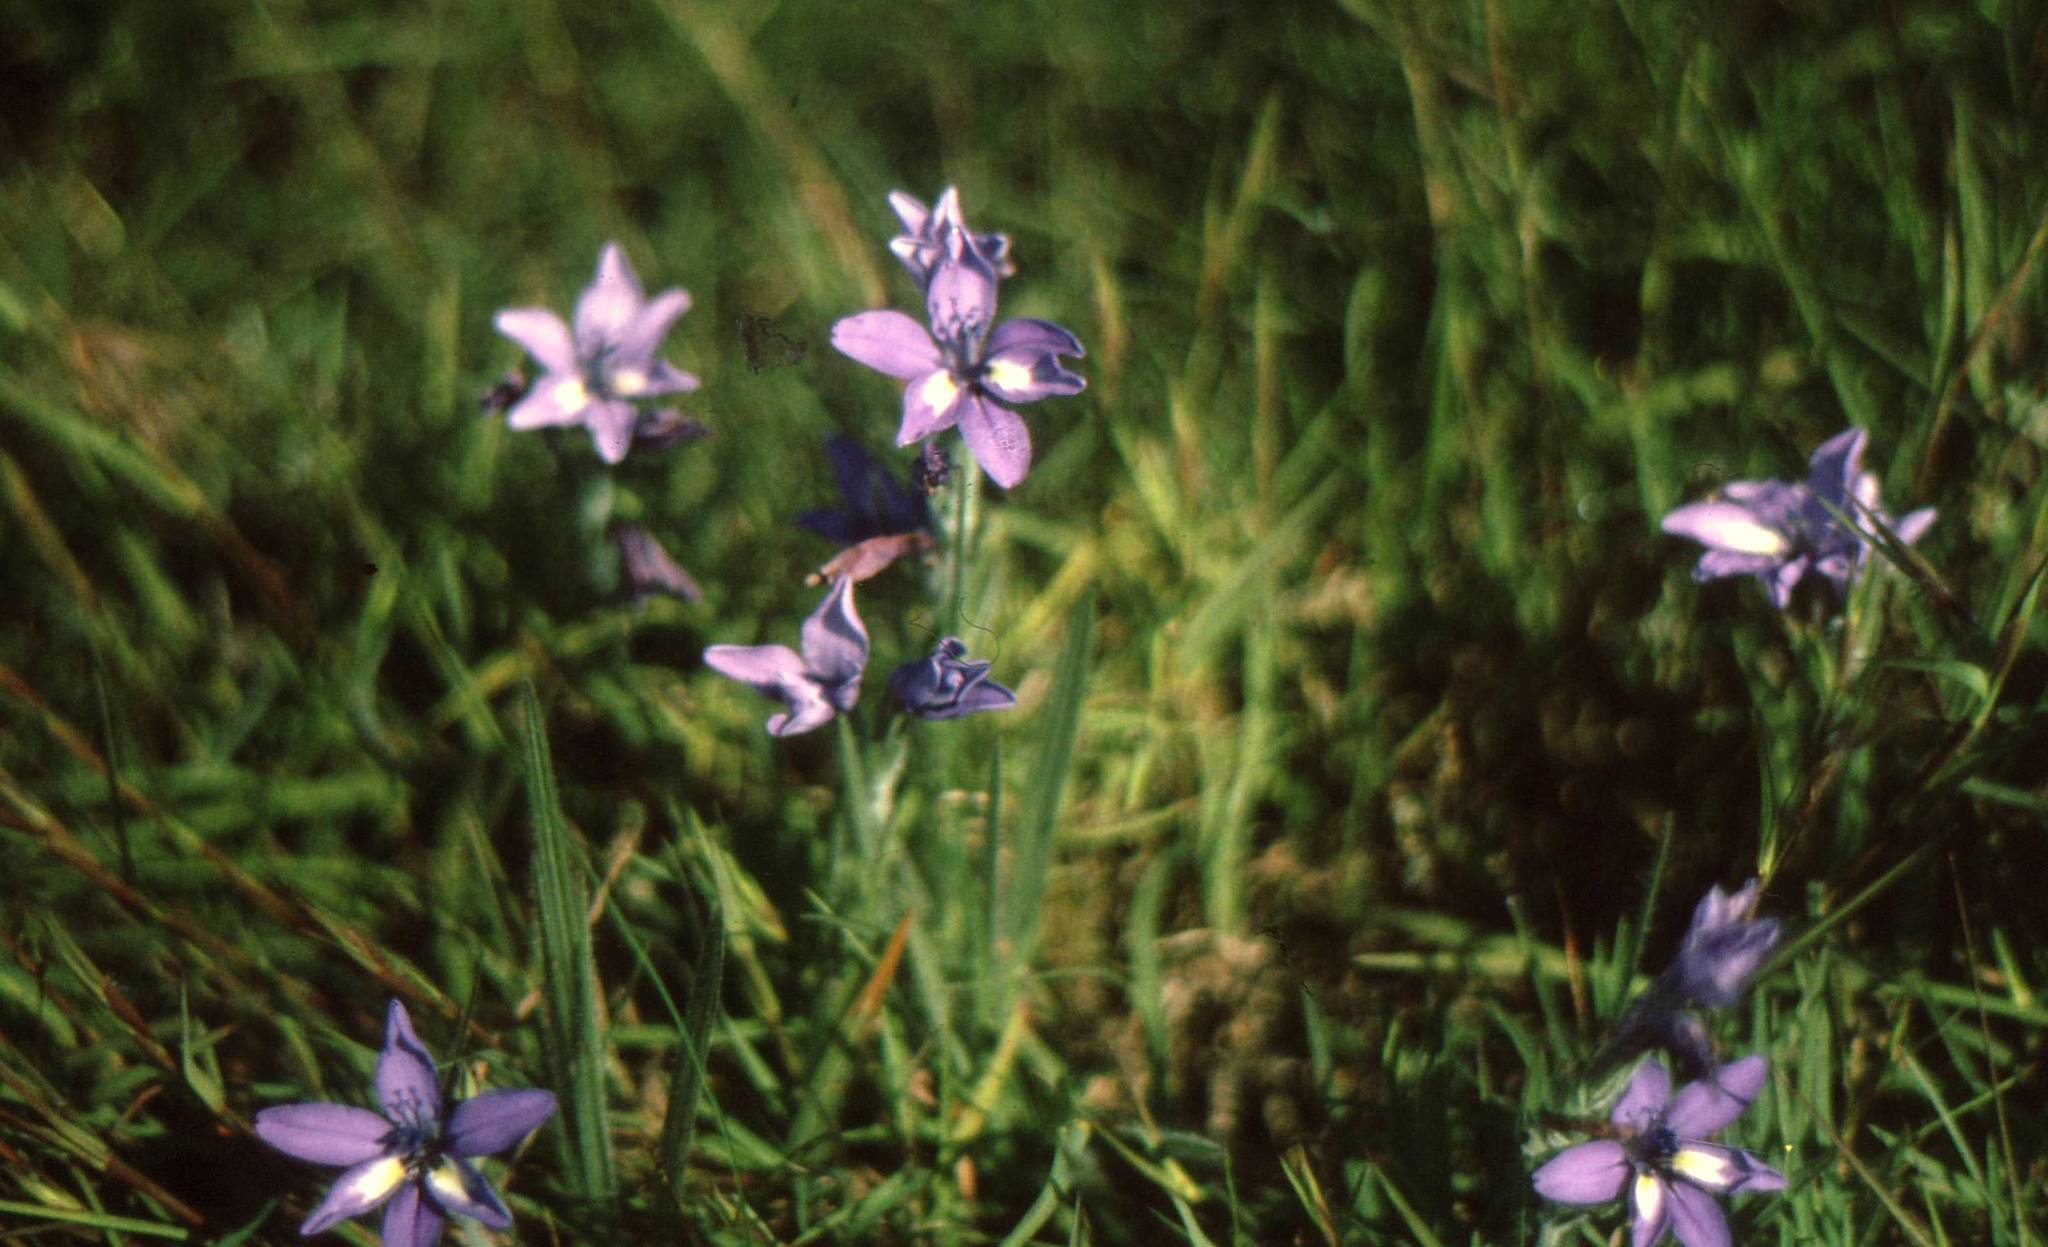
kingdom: Plantae
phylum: Tracheophyta
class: Liliopsida
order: Asparagales
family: Iridaceae
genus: Babiana
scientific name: Babiana patersoniae
